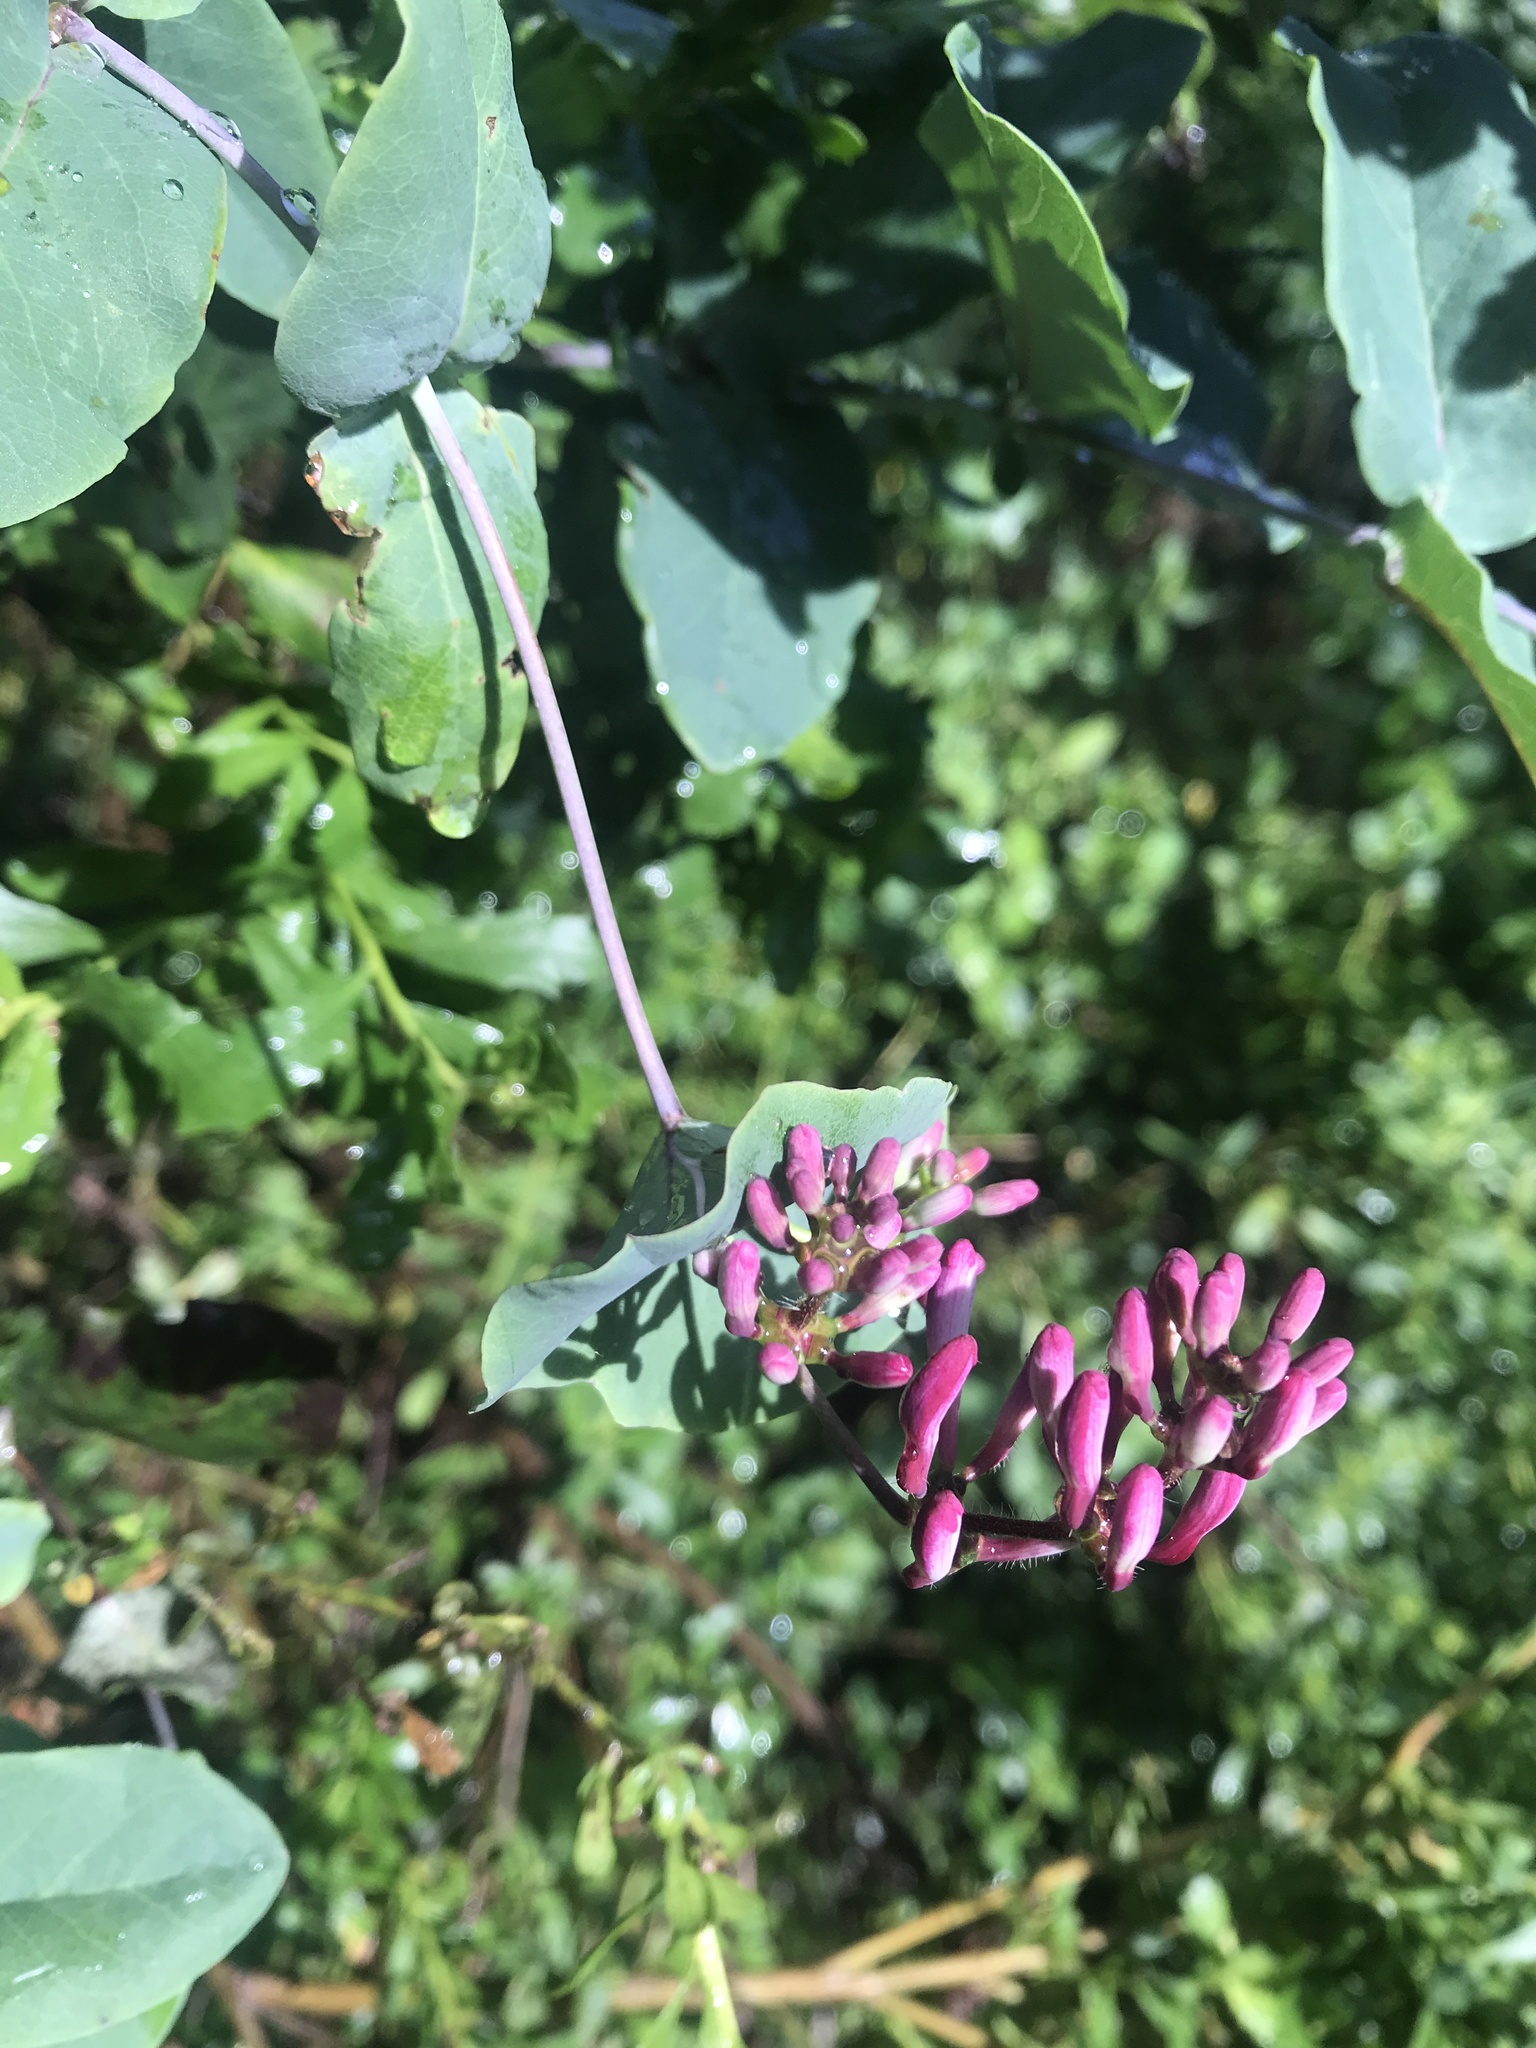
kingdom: Plantae
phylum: Tracheophyta
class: Magnoliopsida
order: Dipsacales
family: Caprifoliaceae
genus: Lonicera
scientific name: Lonicera hispidula
